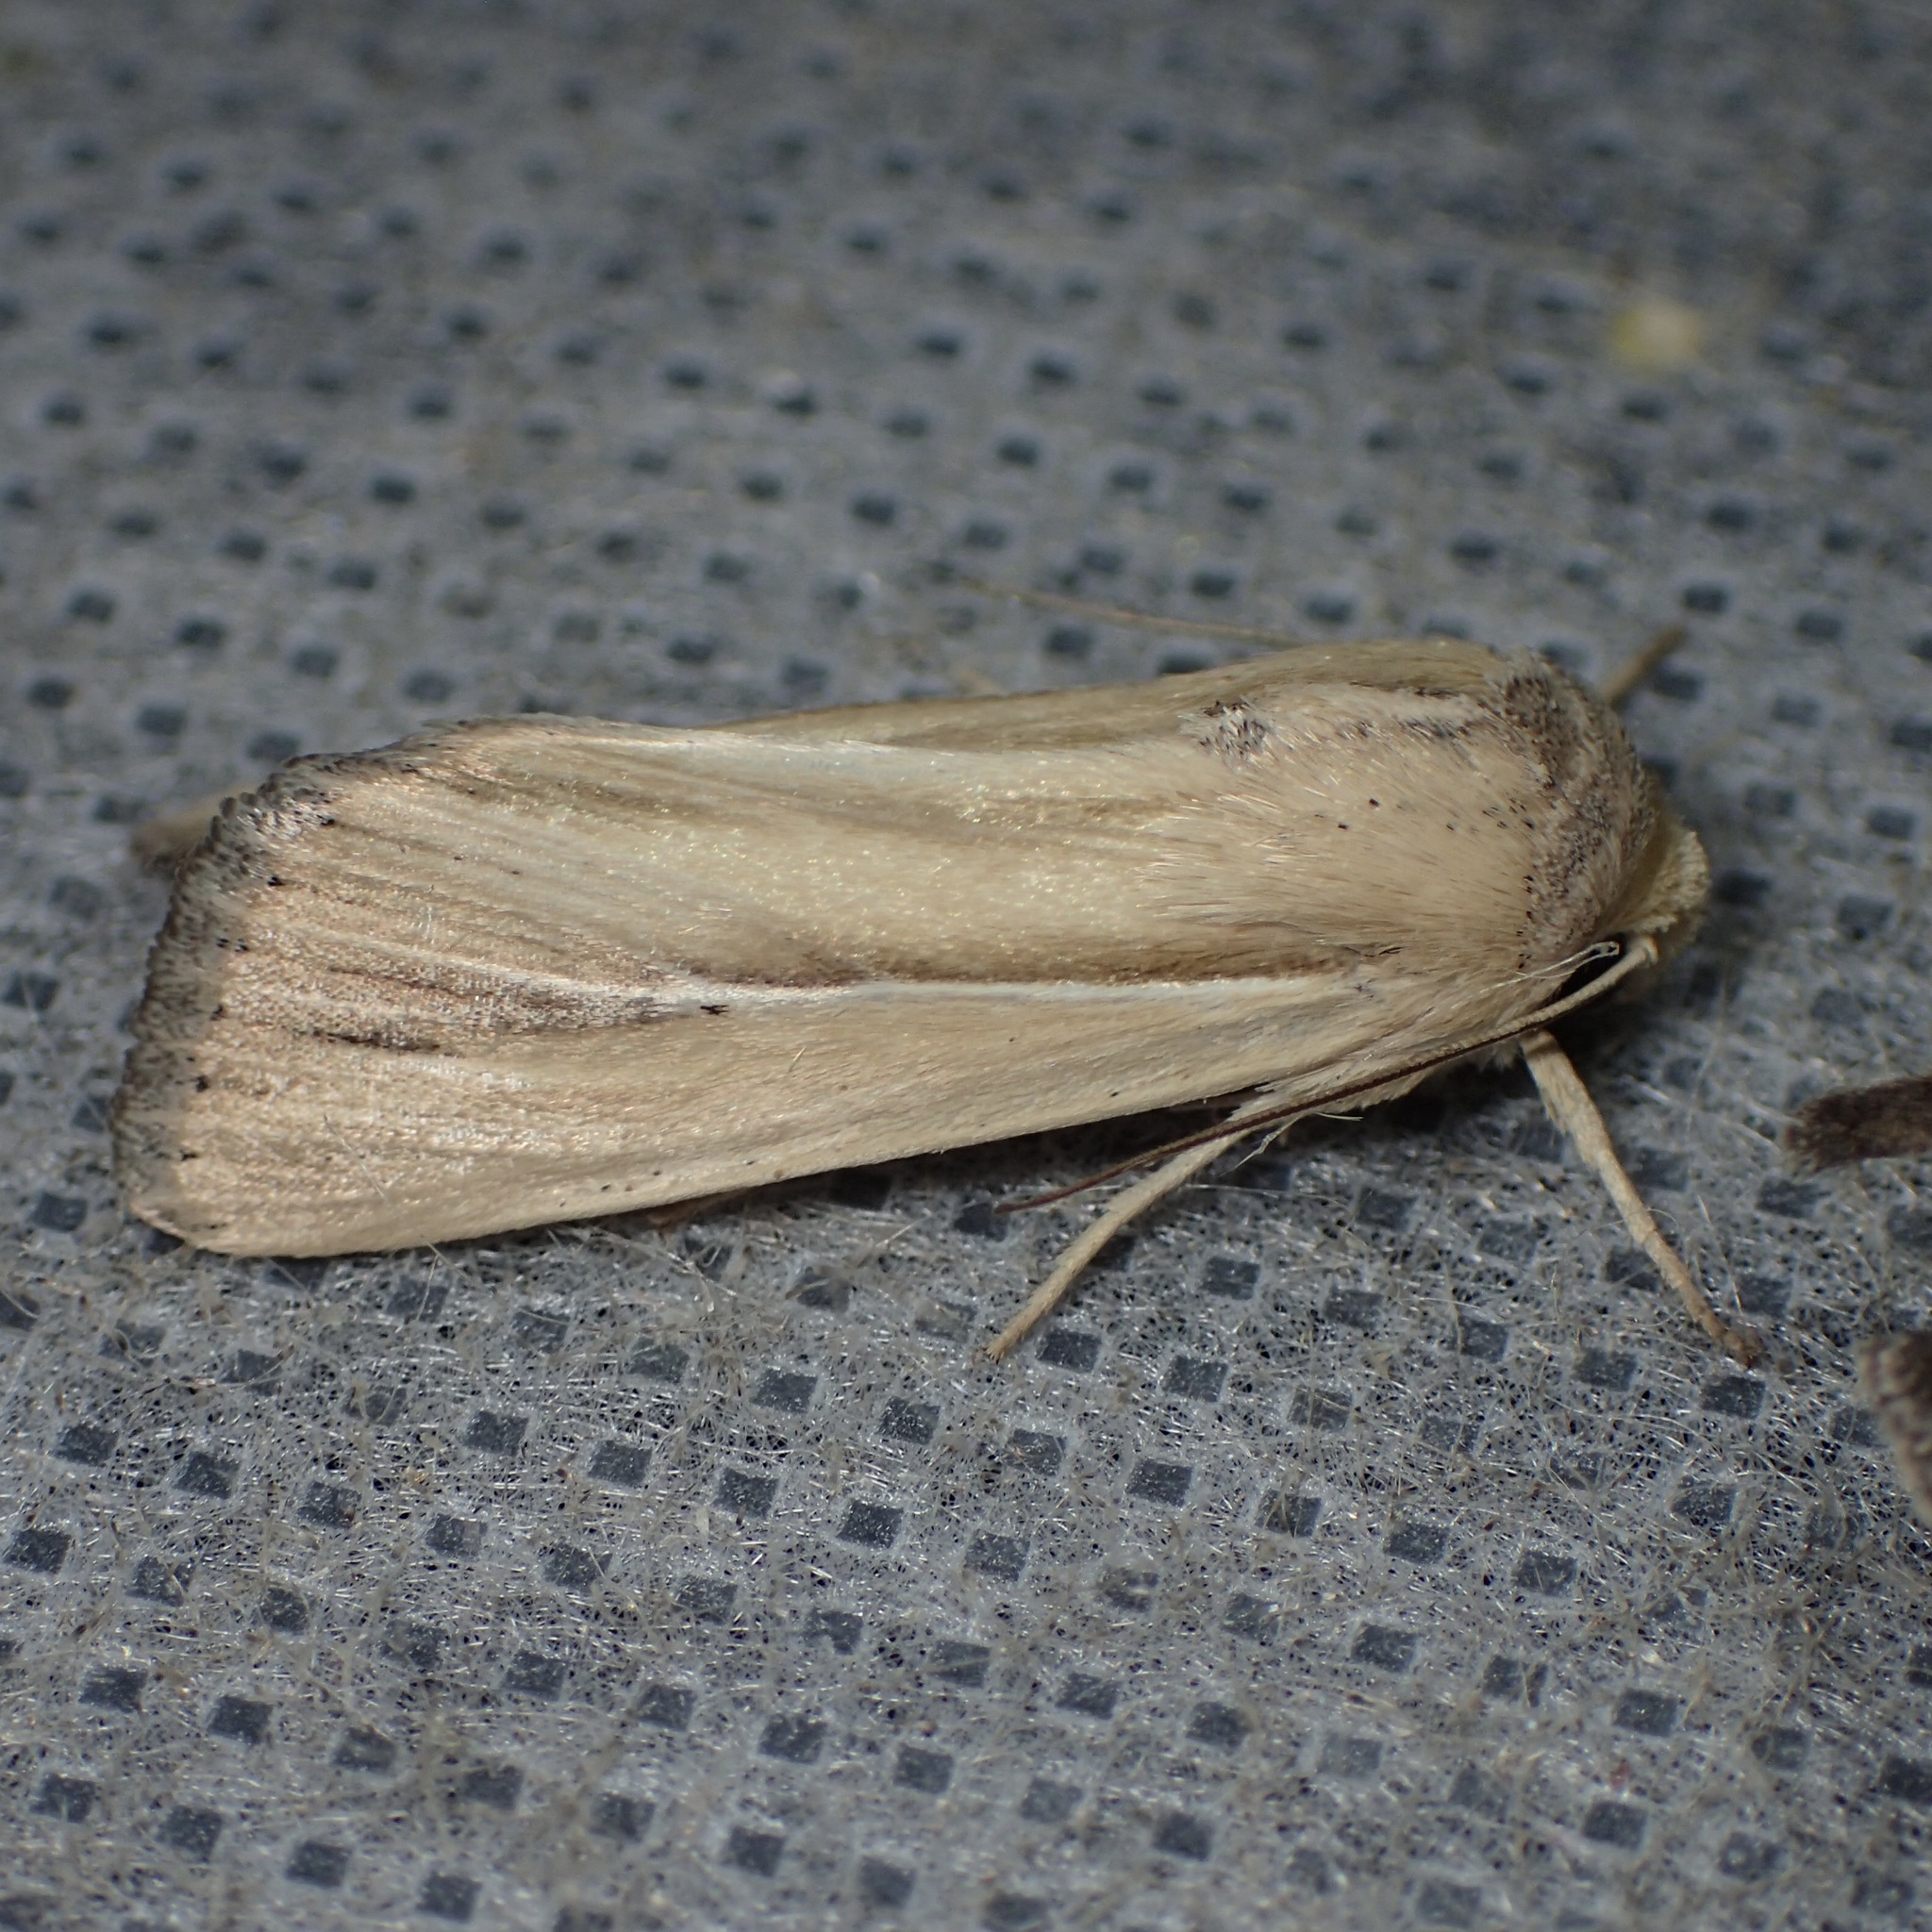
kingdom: Animalia
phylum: Arthropoda
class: Insecta
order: Lepidoptera
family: Noctuidae
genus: Leucania
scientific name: Leucania stolata
